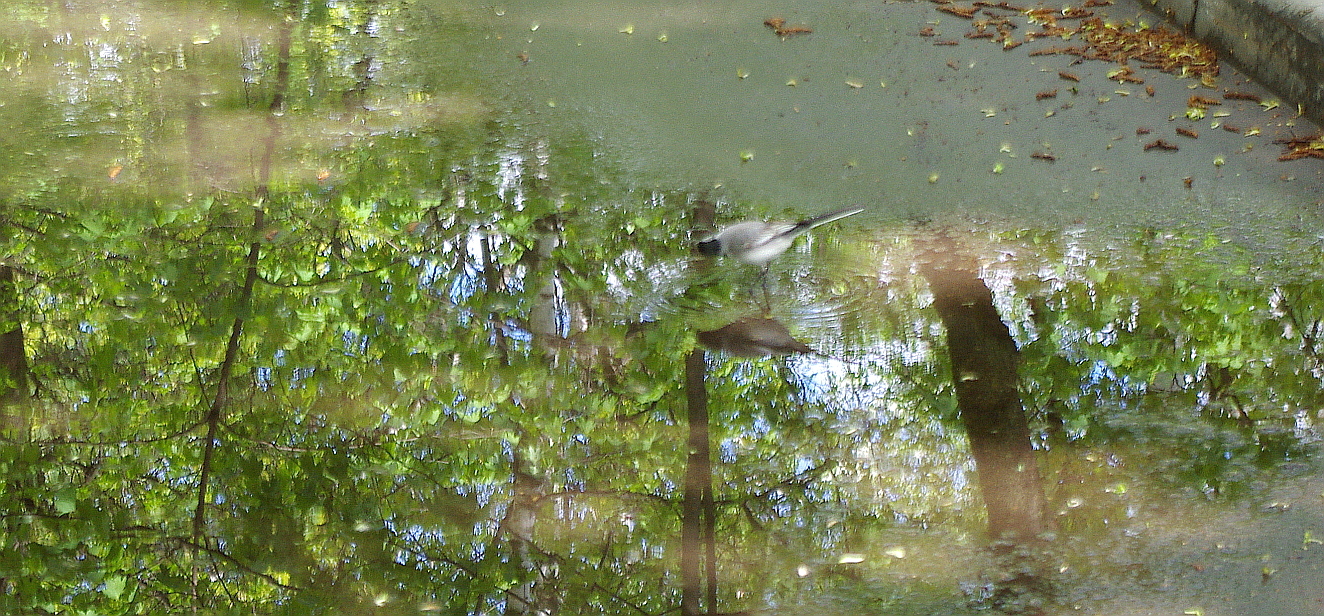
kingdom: Animalia
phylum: Chordata
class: Aves
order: Passeriformes
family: Motacillidae
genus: Motacilla
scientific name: Motacilla alba
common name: White wagtail
